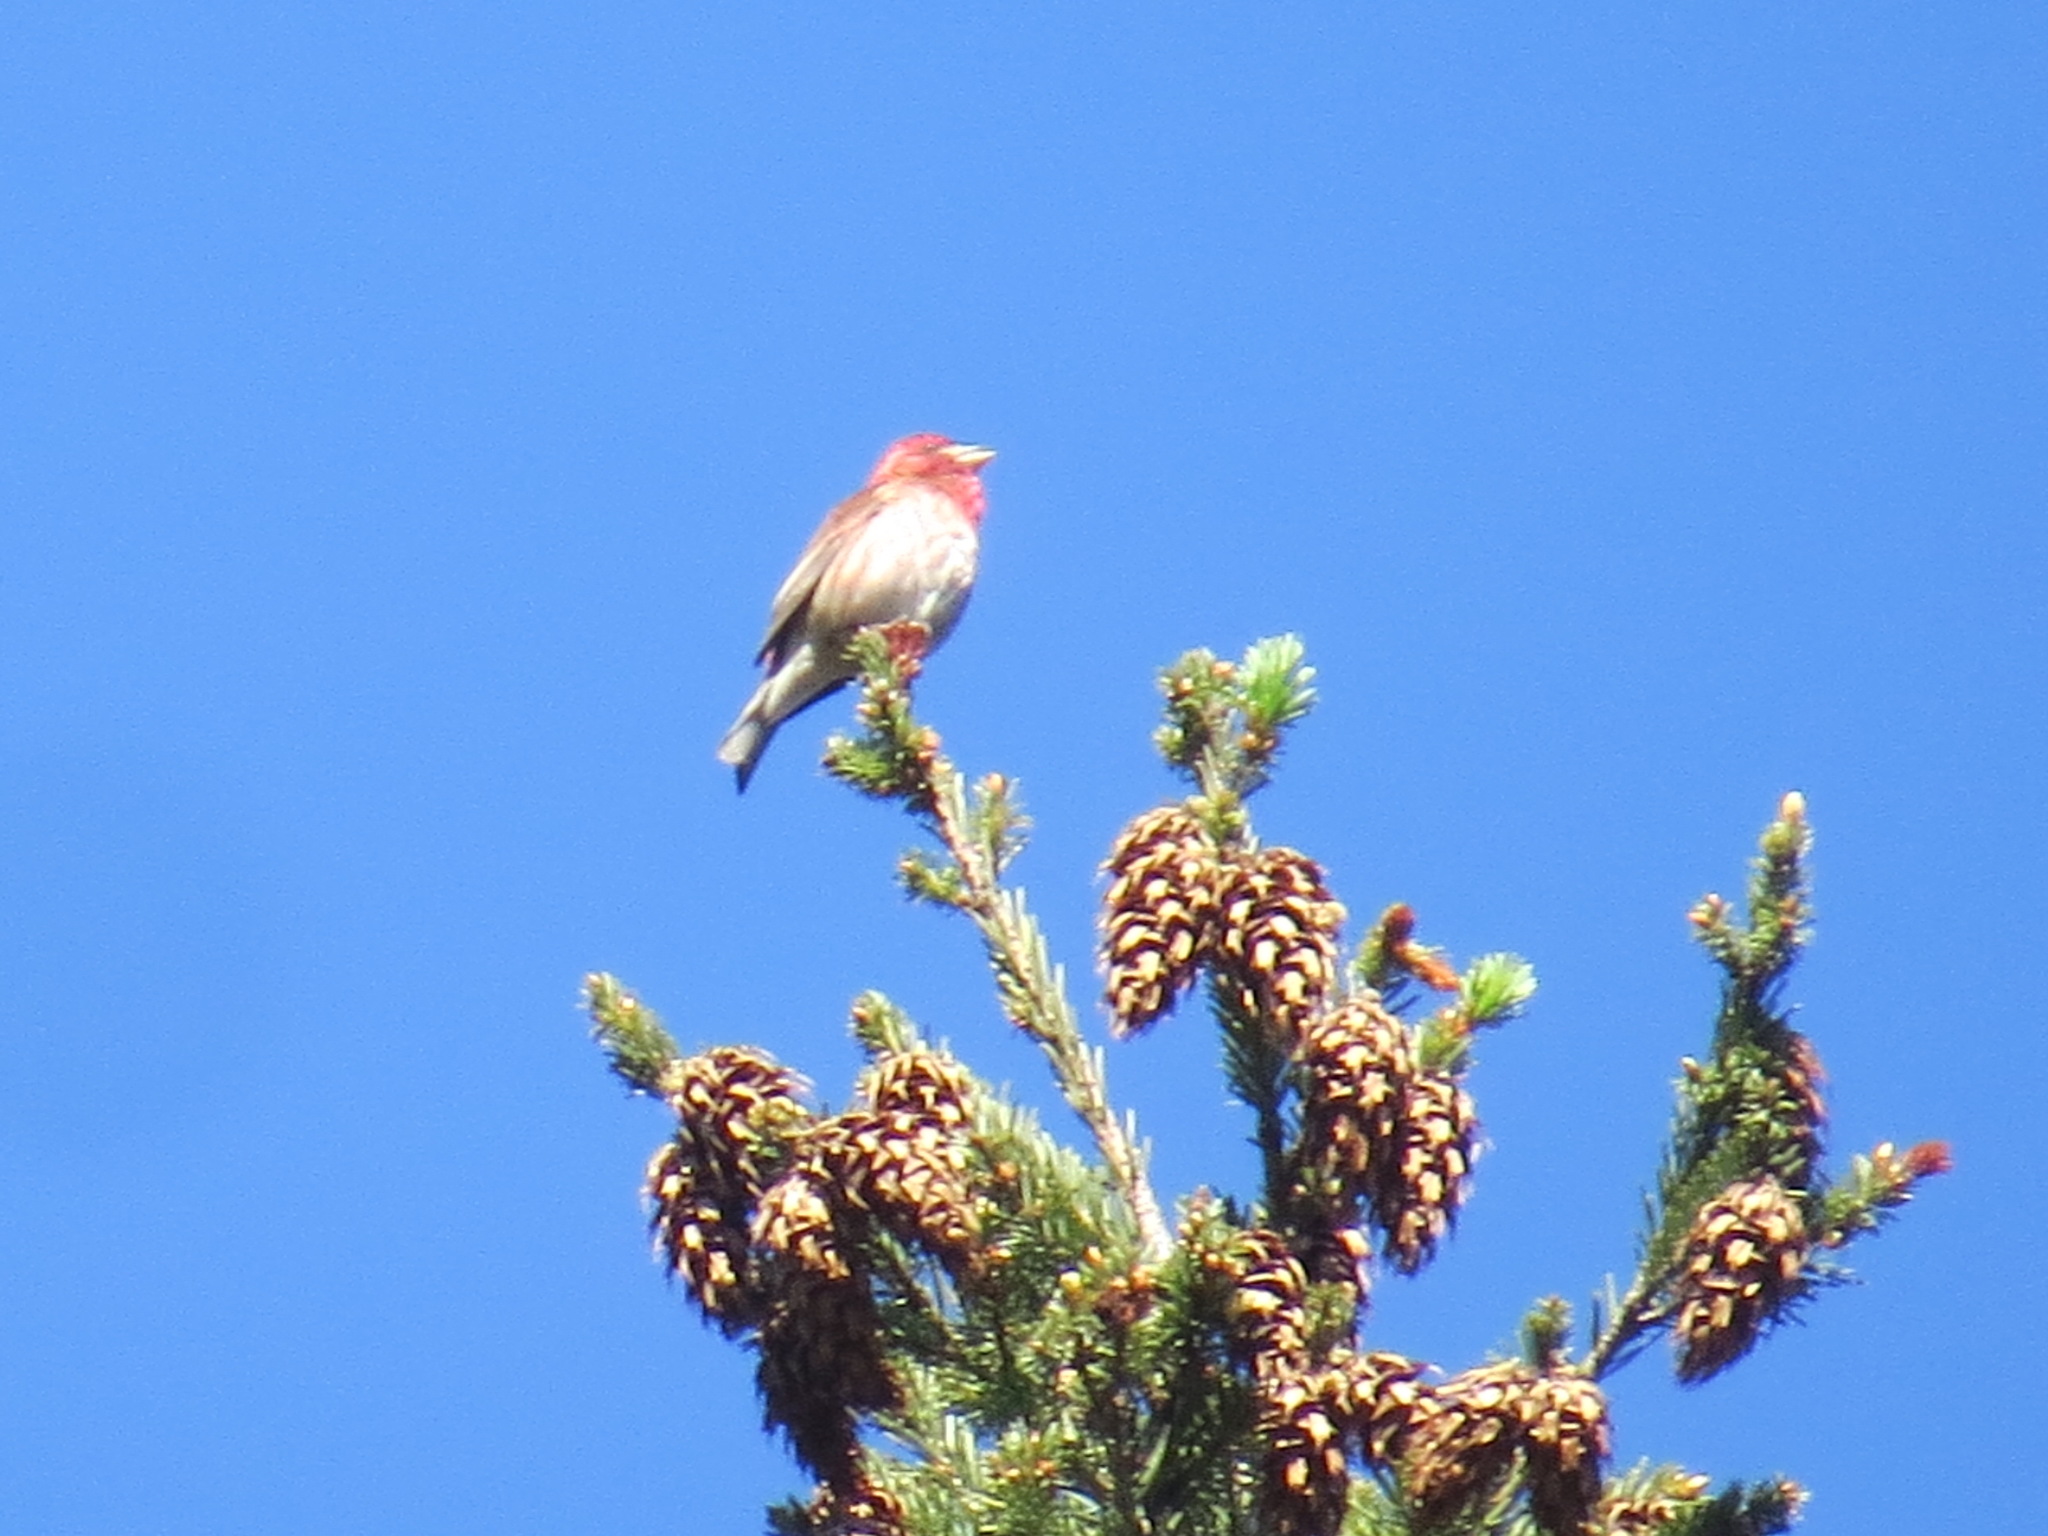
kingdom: Animalia
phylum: Chordata
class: Aves
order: Passeriformes
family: Fringillidae
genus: Haemorhous
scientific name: Haemorhous purpureus
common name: Purple finch
